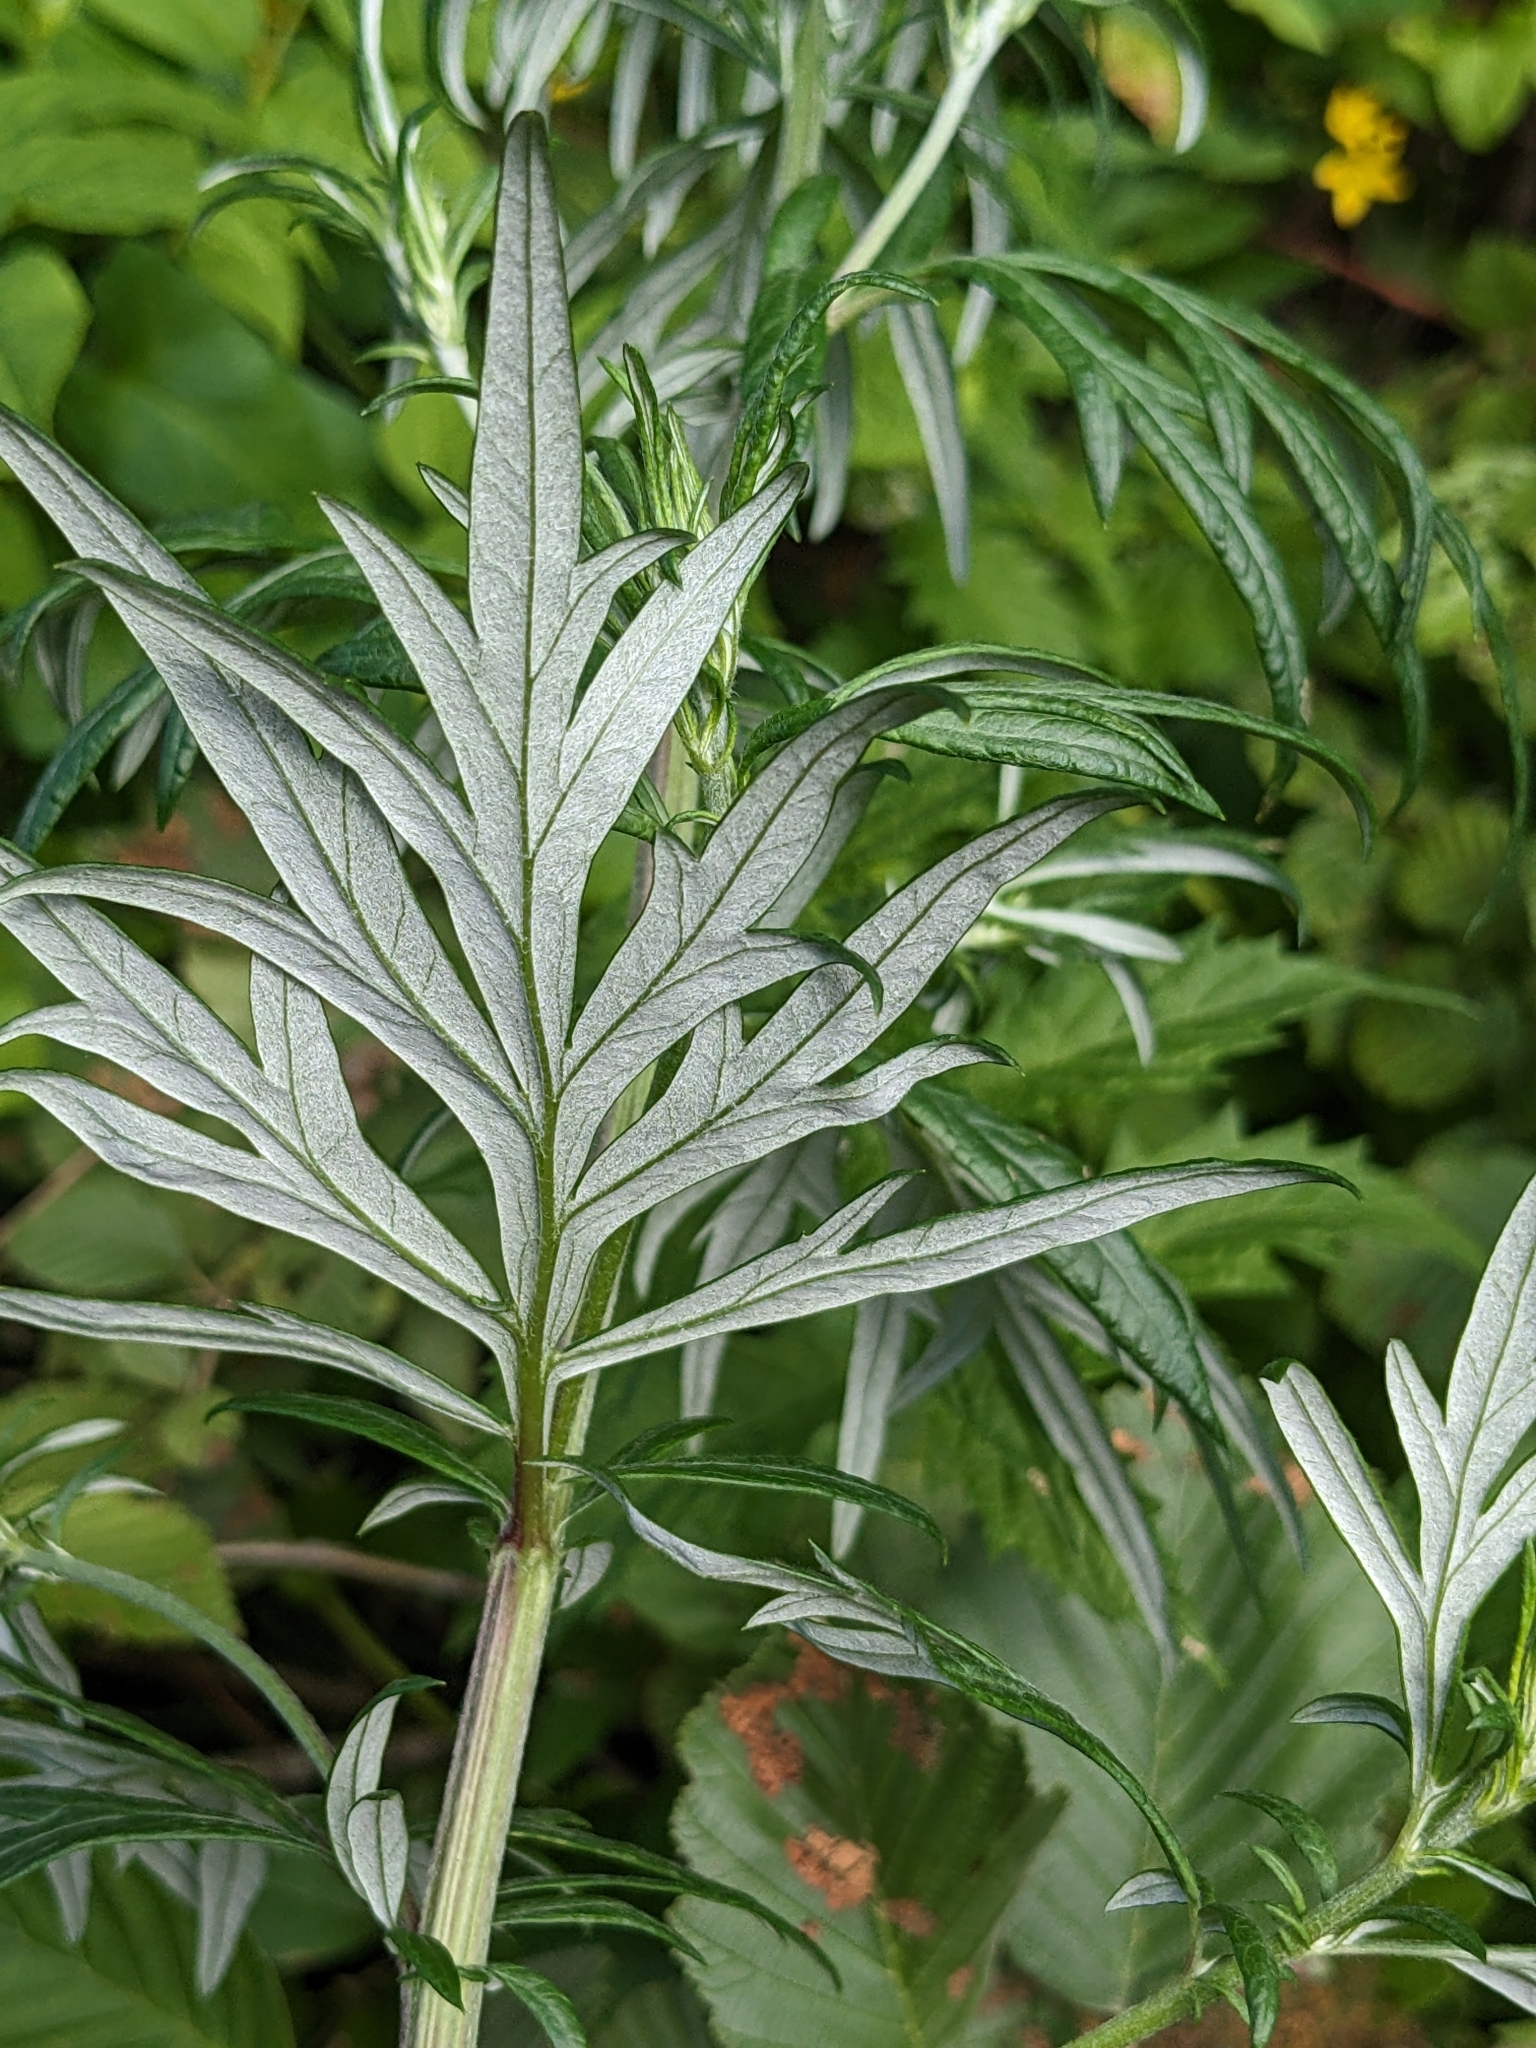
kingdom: Plantae
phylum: Tracheophyta
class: Magnoliopsida
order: Asterales
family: Asteraceae
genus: Artemisia
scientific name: Artemisia vulgaris
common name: Mugwort
